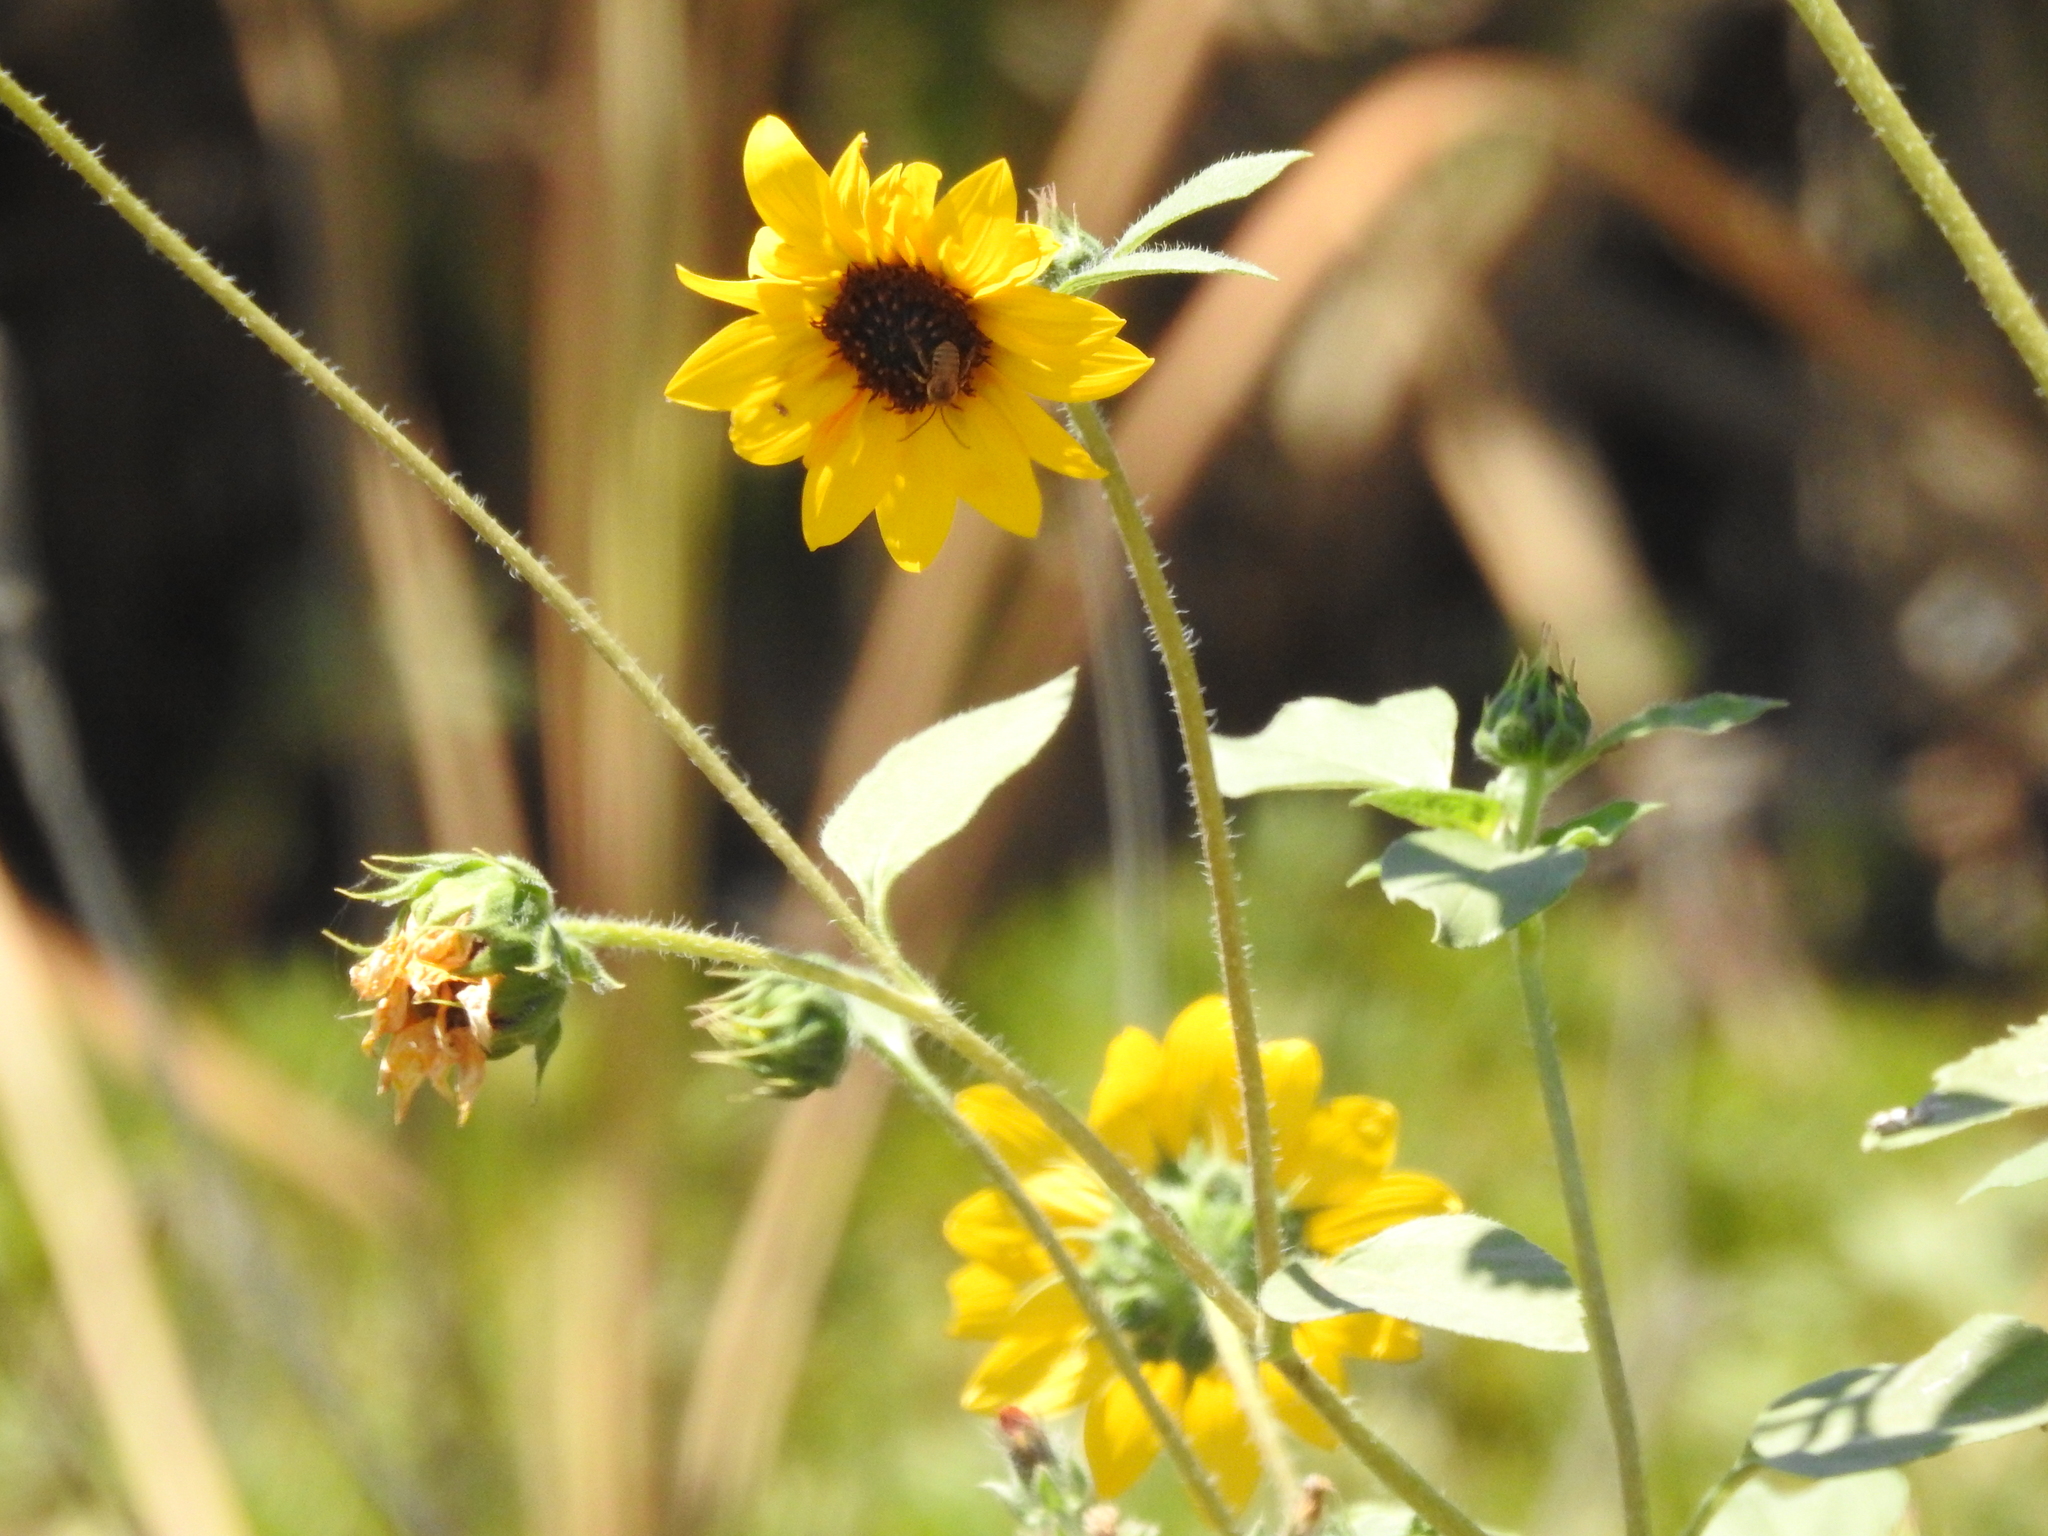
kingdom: Plantae
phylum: Tracheophyta
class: Magnoliopsida
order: Asterales
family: Asteraceae
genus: Helianthus
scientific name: Helianthus annuus
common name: Sunflower
